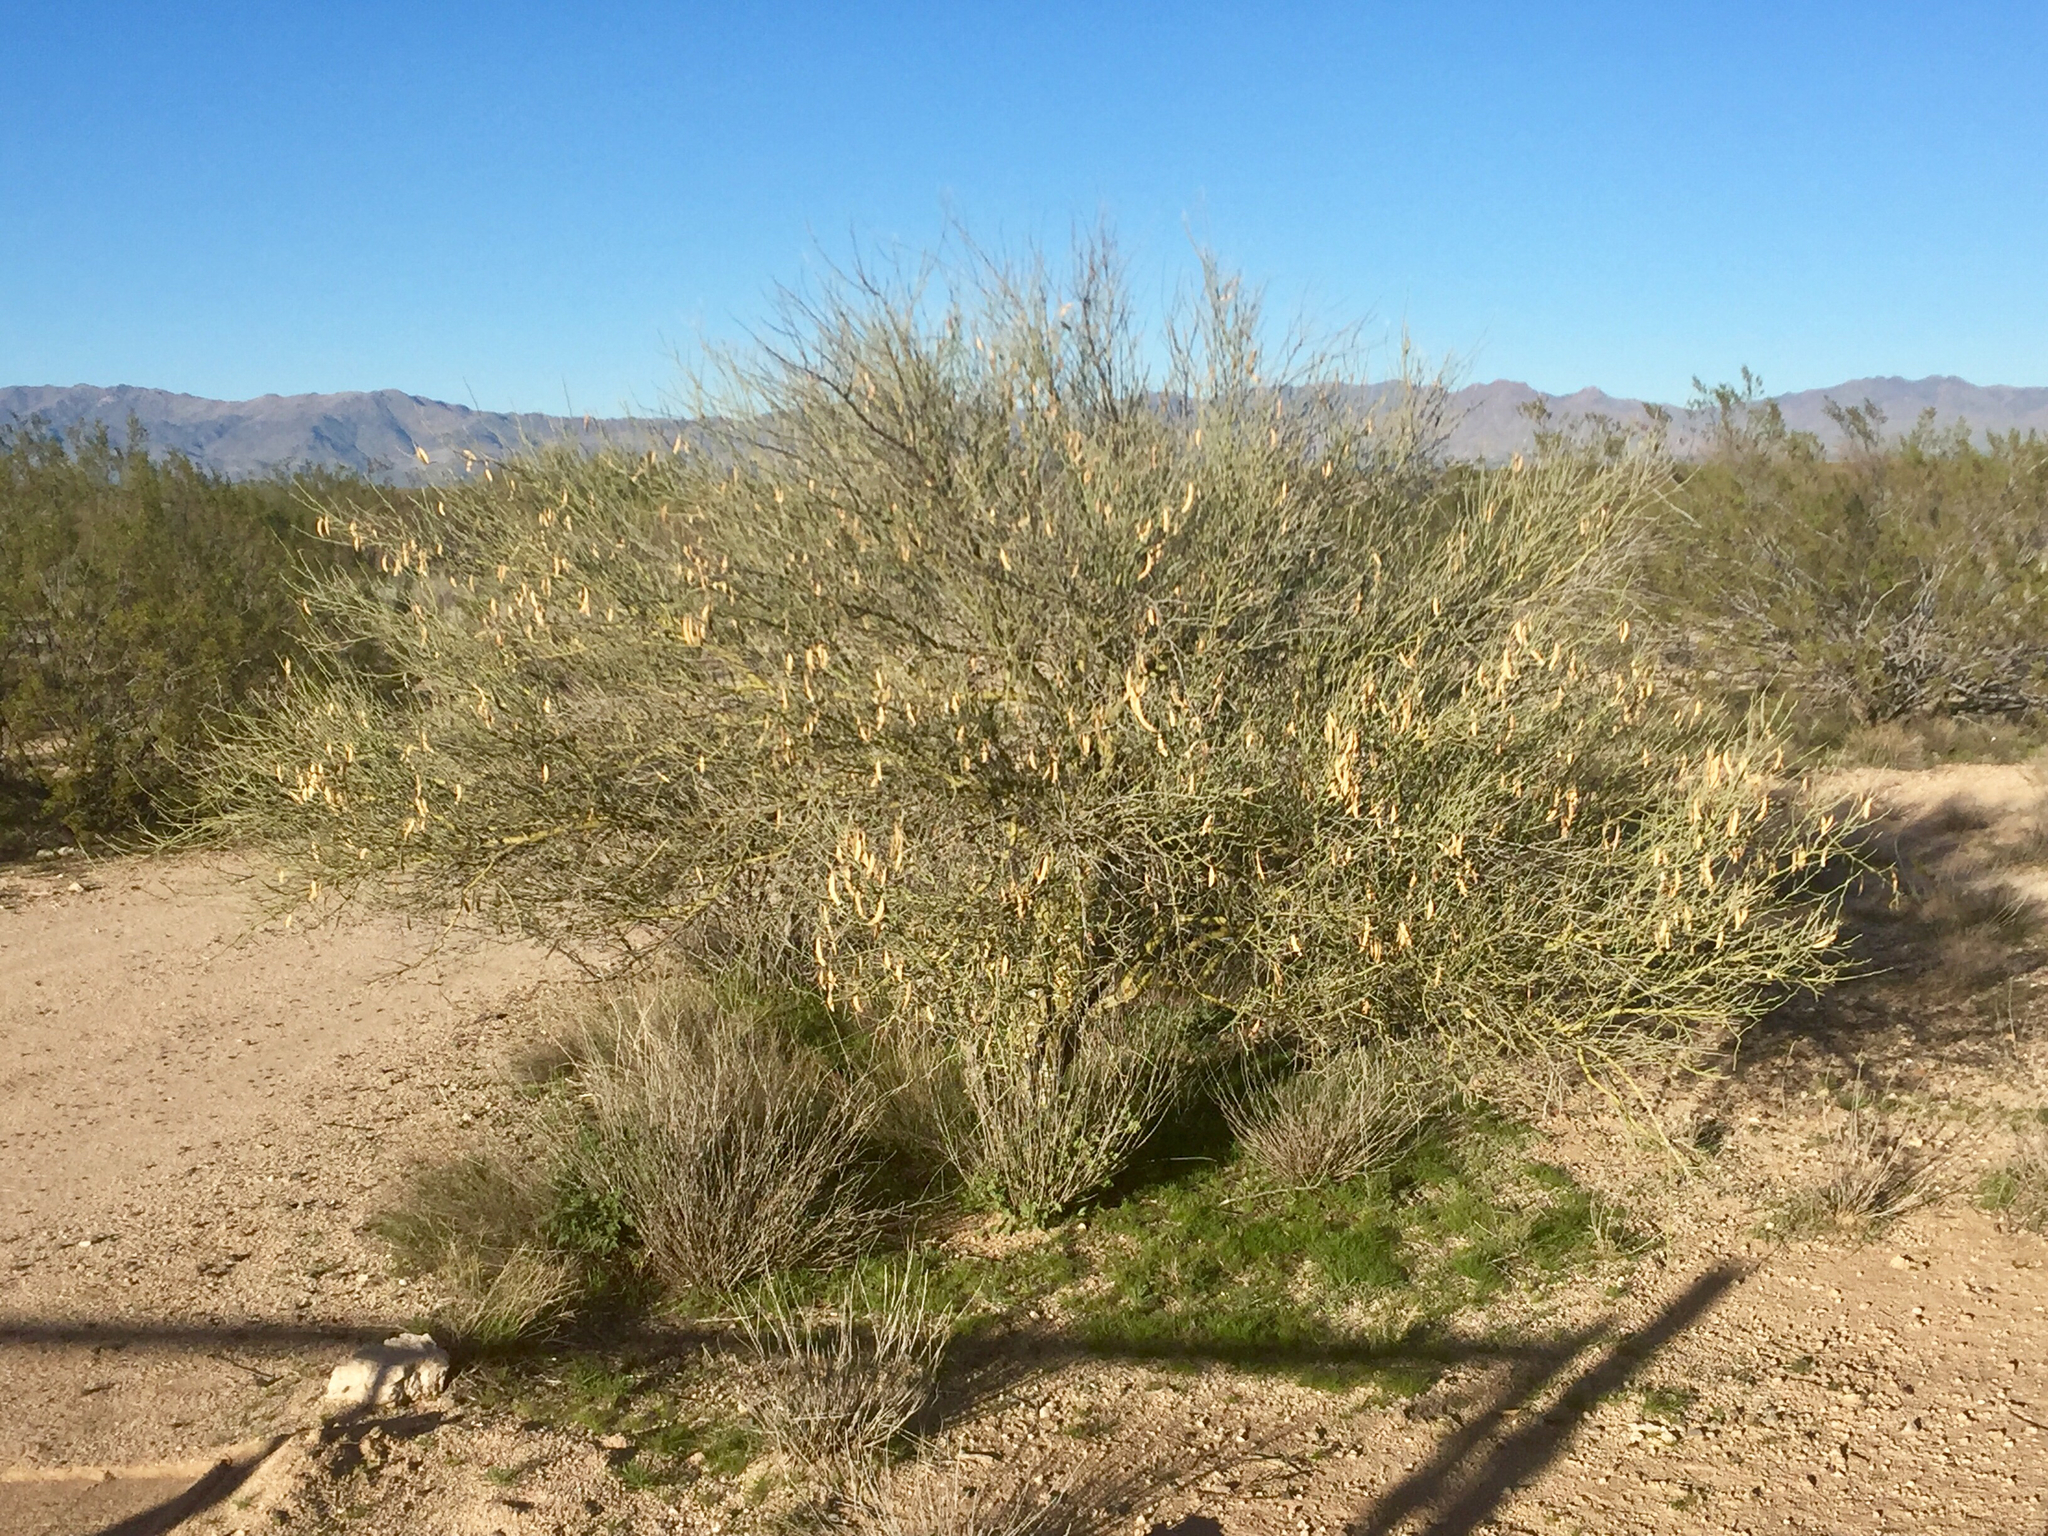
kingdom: Plantae
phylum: Tracheophyta
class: Magnoliopsida
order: Fabales
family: Fabaceae
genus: Parkinsonia
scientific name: Parkinsonia florida
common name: Blue paloverde
